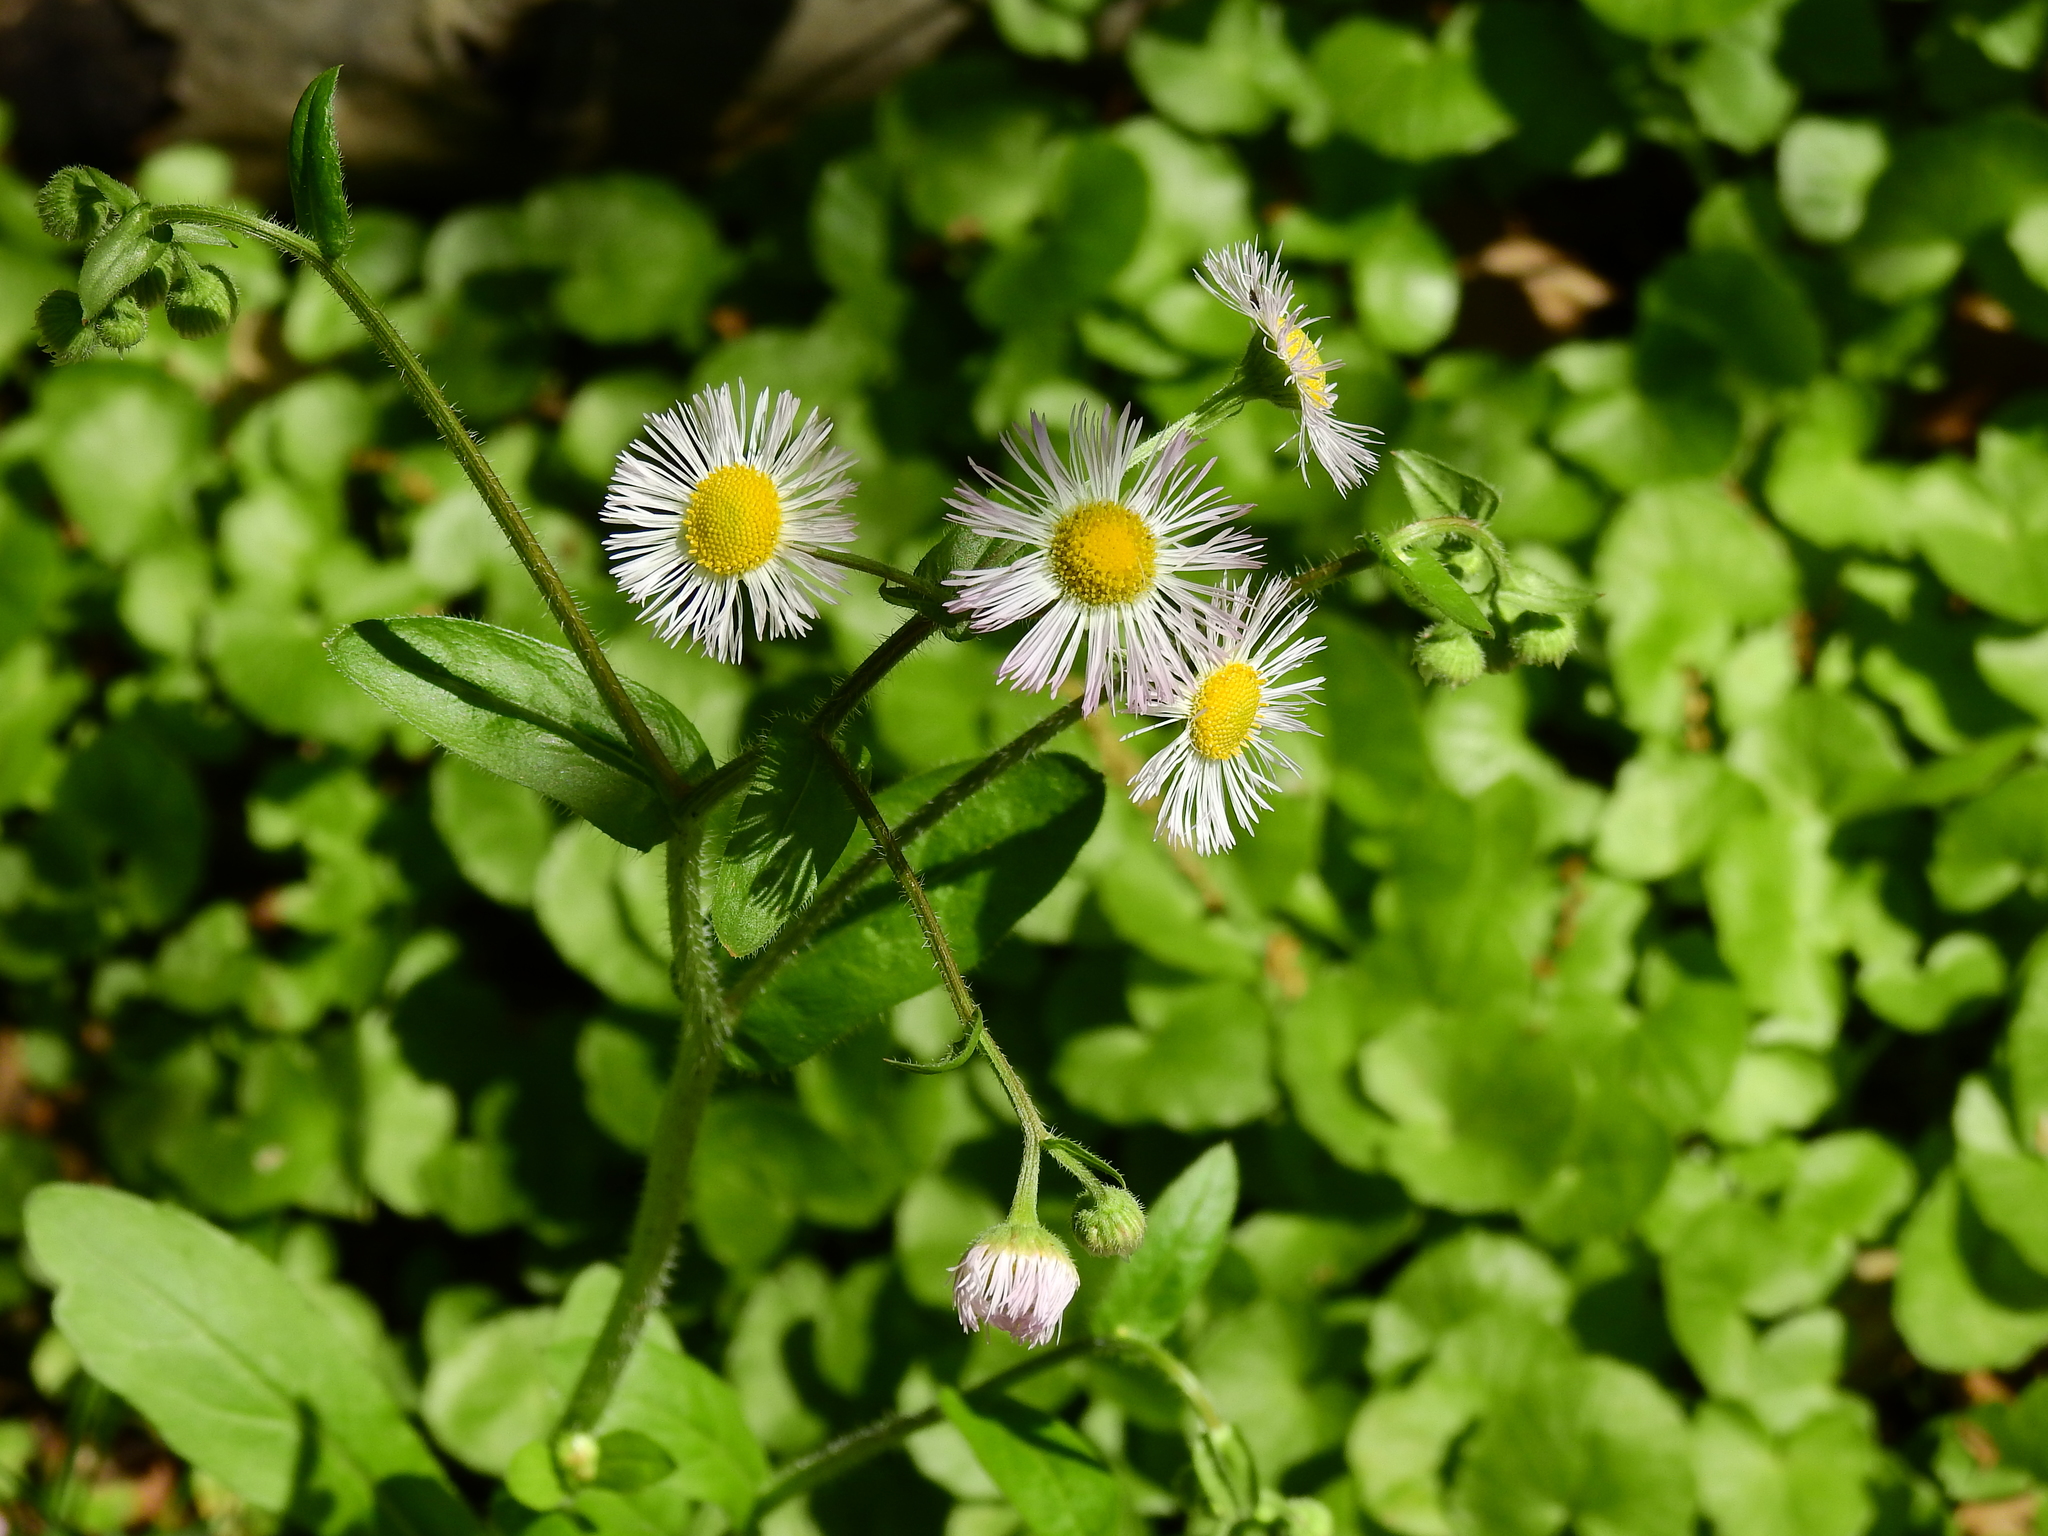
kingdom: Plantae
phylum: Tracheophyta
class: Magnoliopsida
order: Asterales
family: Asteraceae
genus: Erigeron
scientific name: Erigeron philadelphicus
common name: Robin's-plantain
